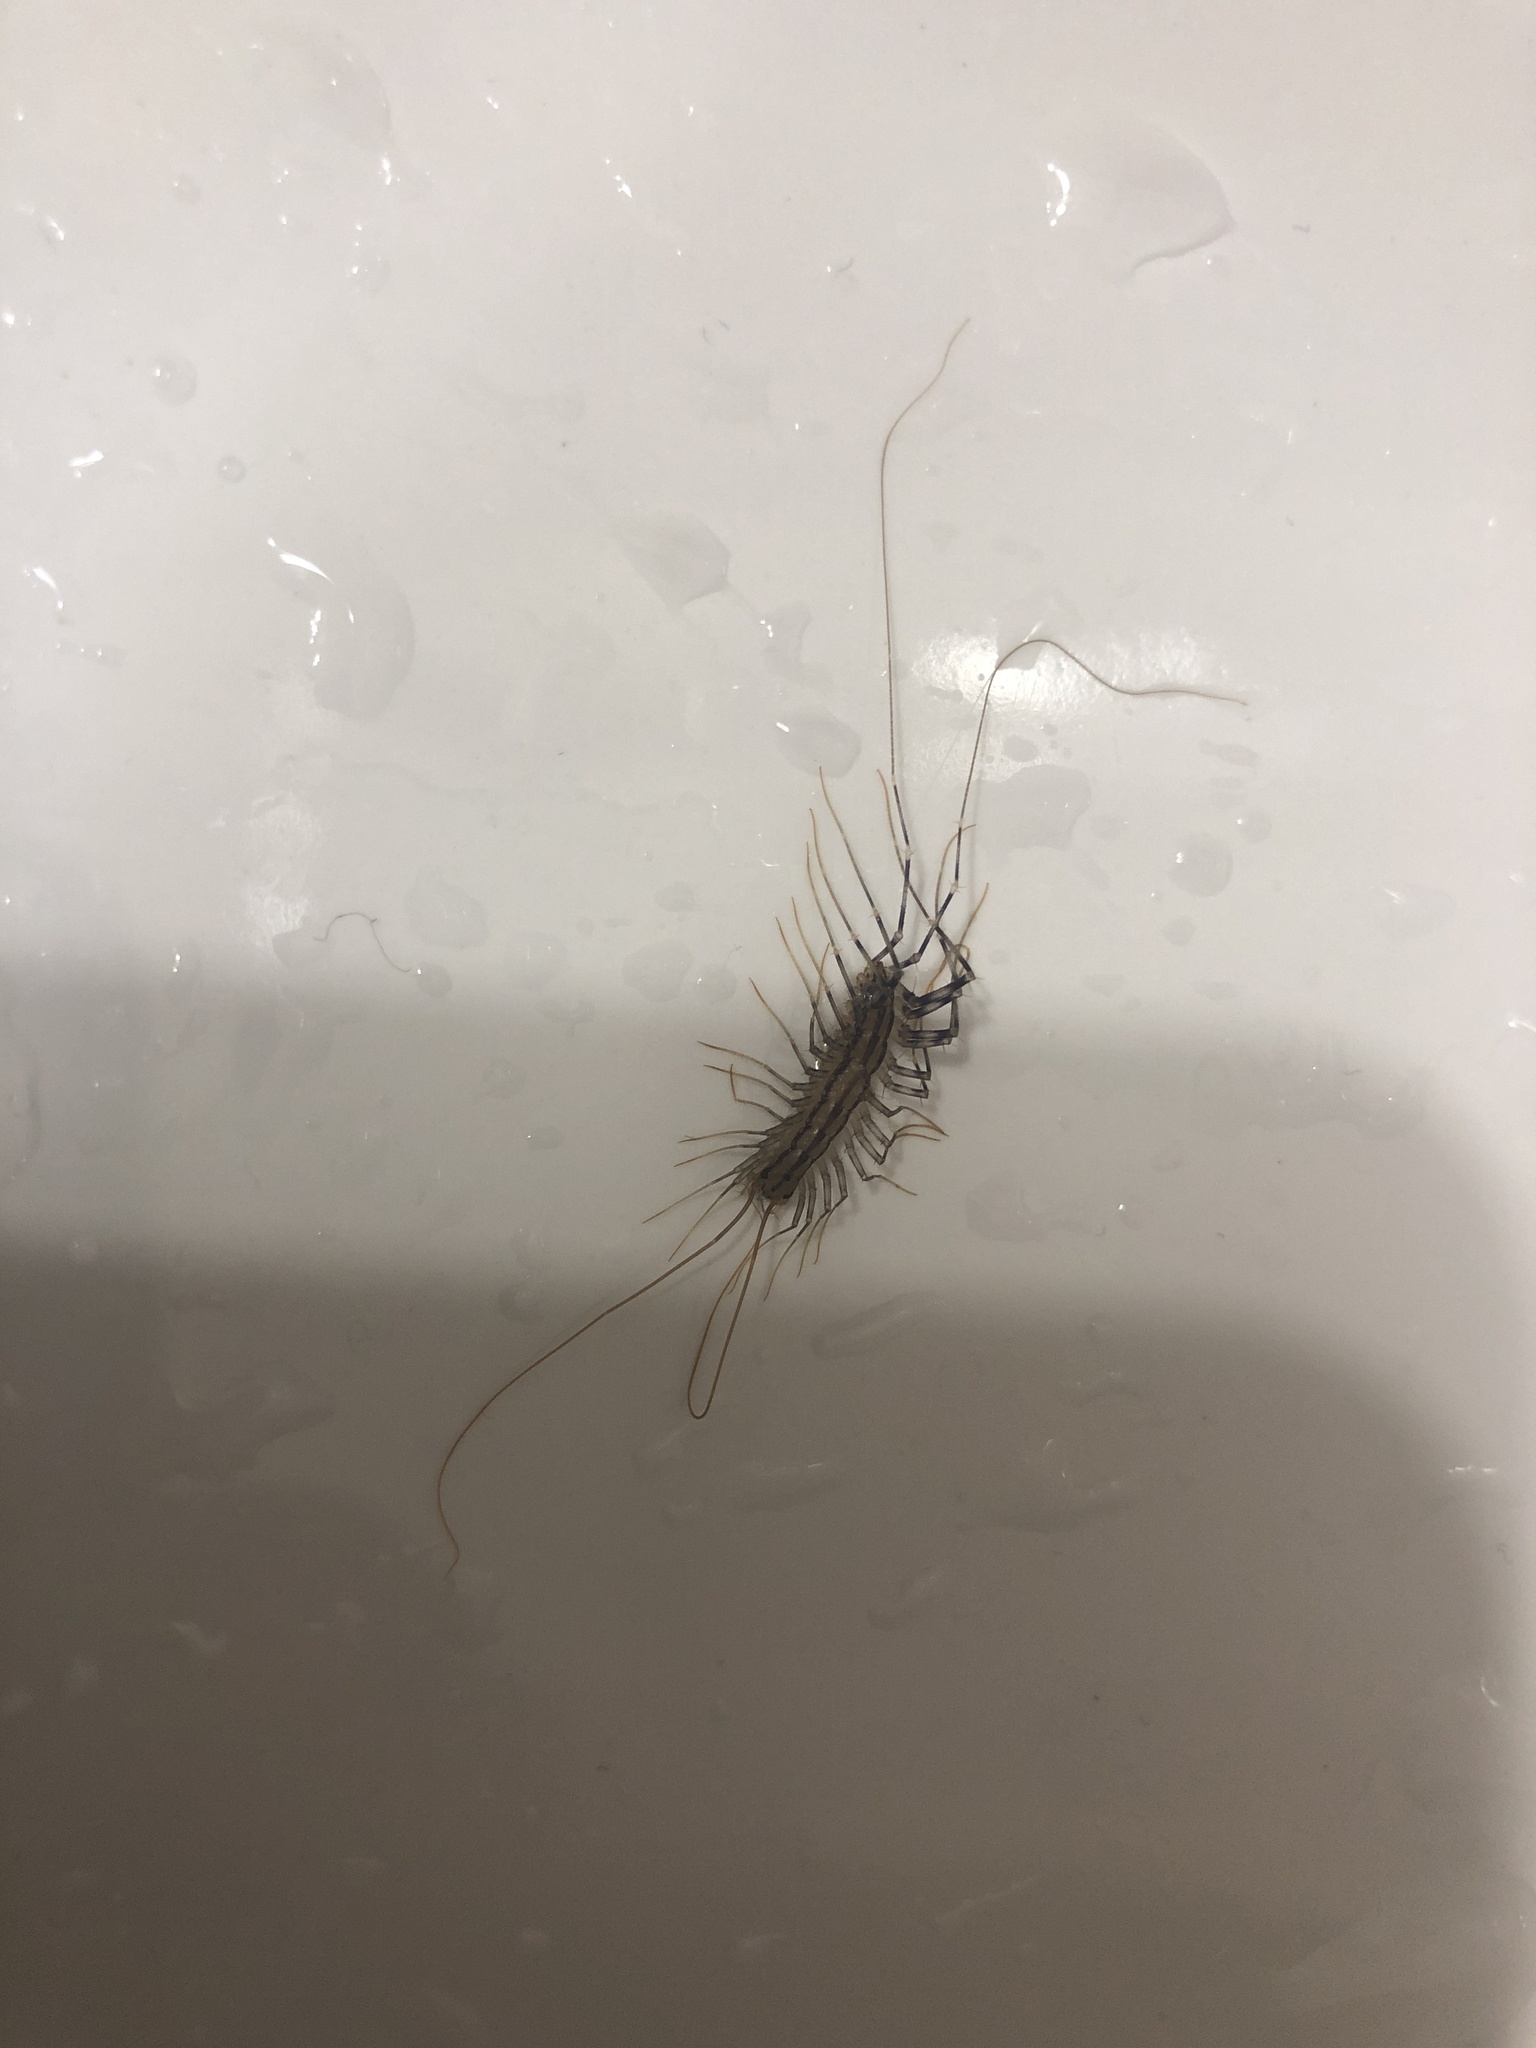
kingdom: Animalia
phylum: Arthropoda
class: Chilopoda
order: Scutigeromorpha
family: Scutigeridae
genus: Scutigera
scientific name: Scutigera coleoptrata
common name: House centipede
